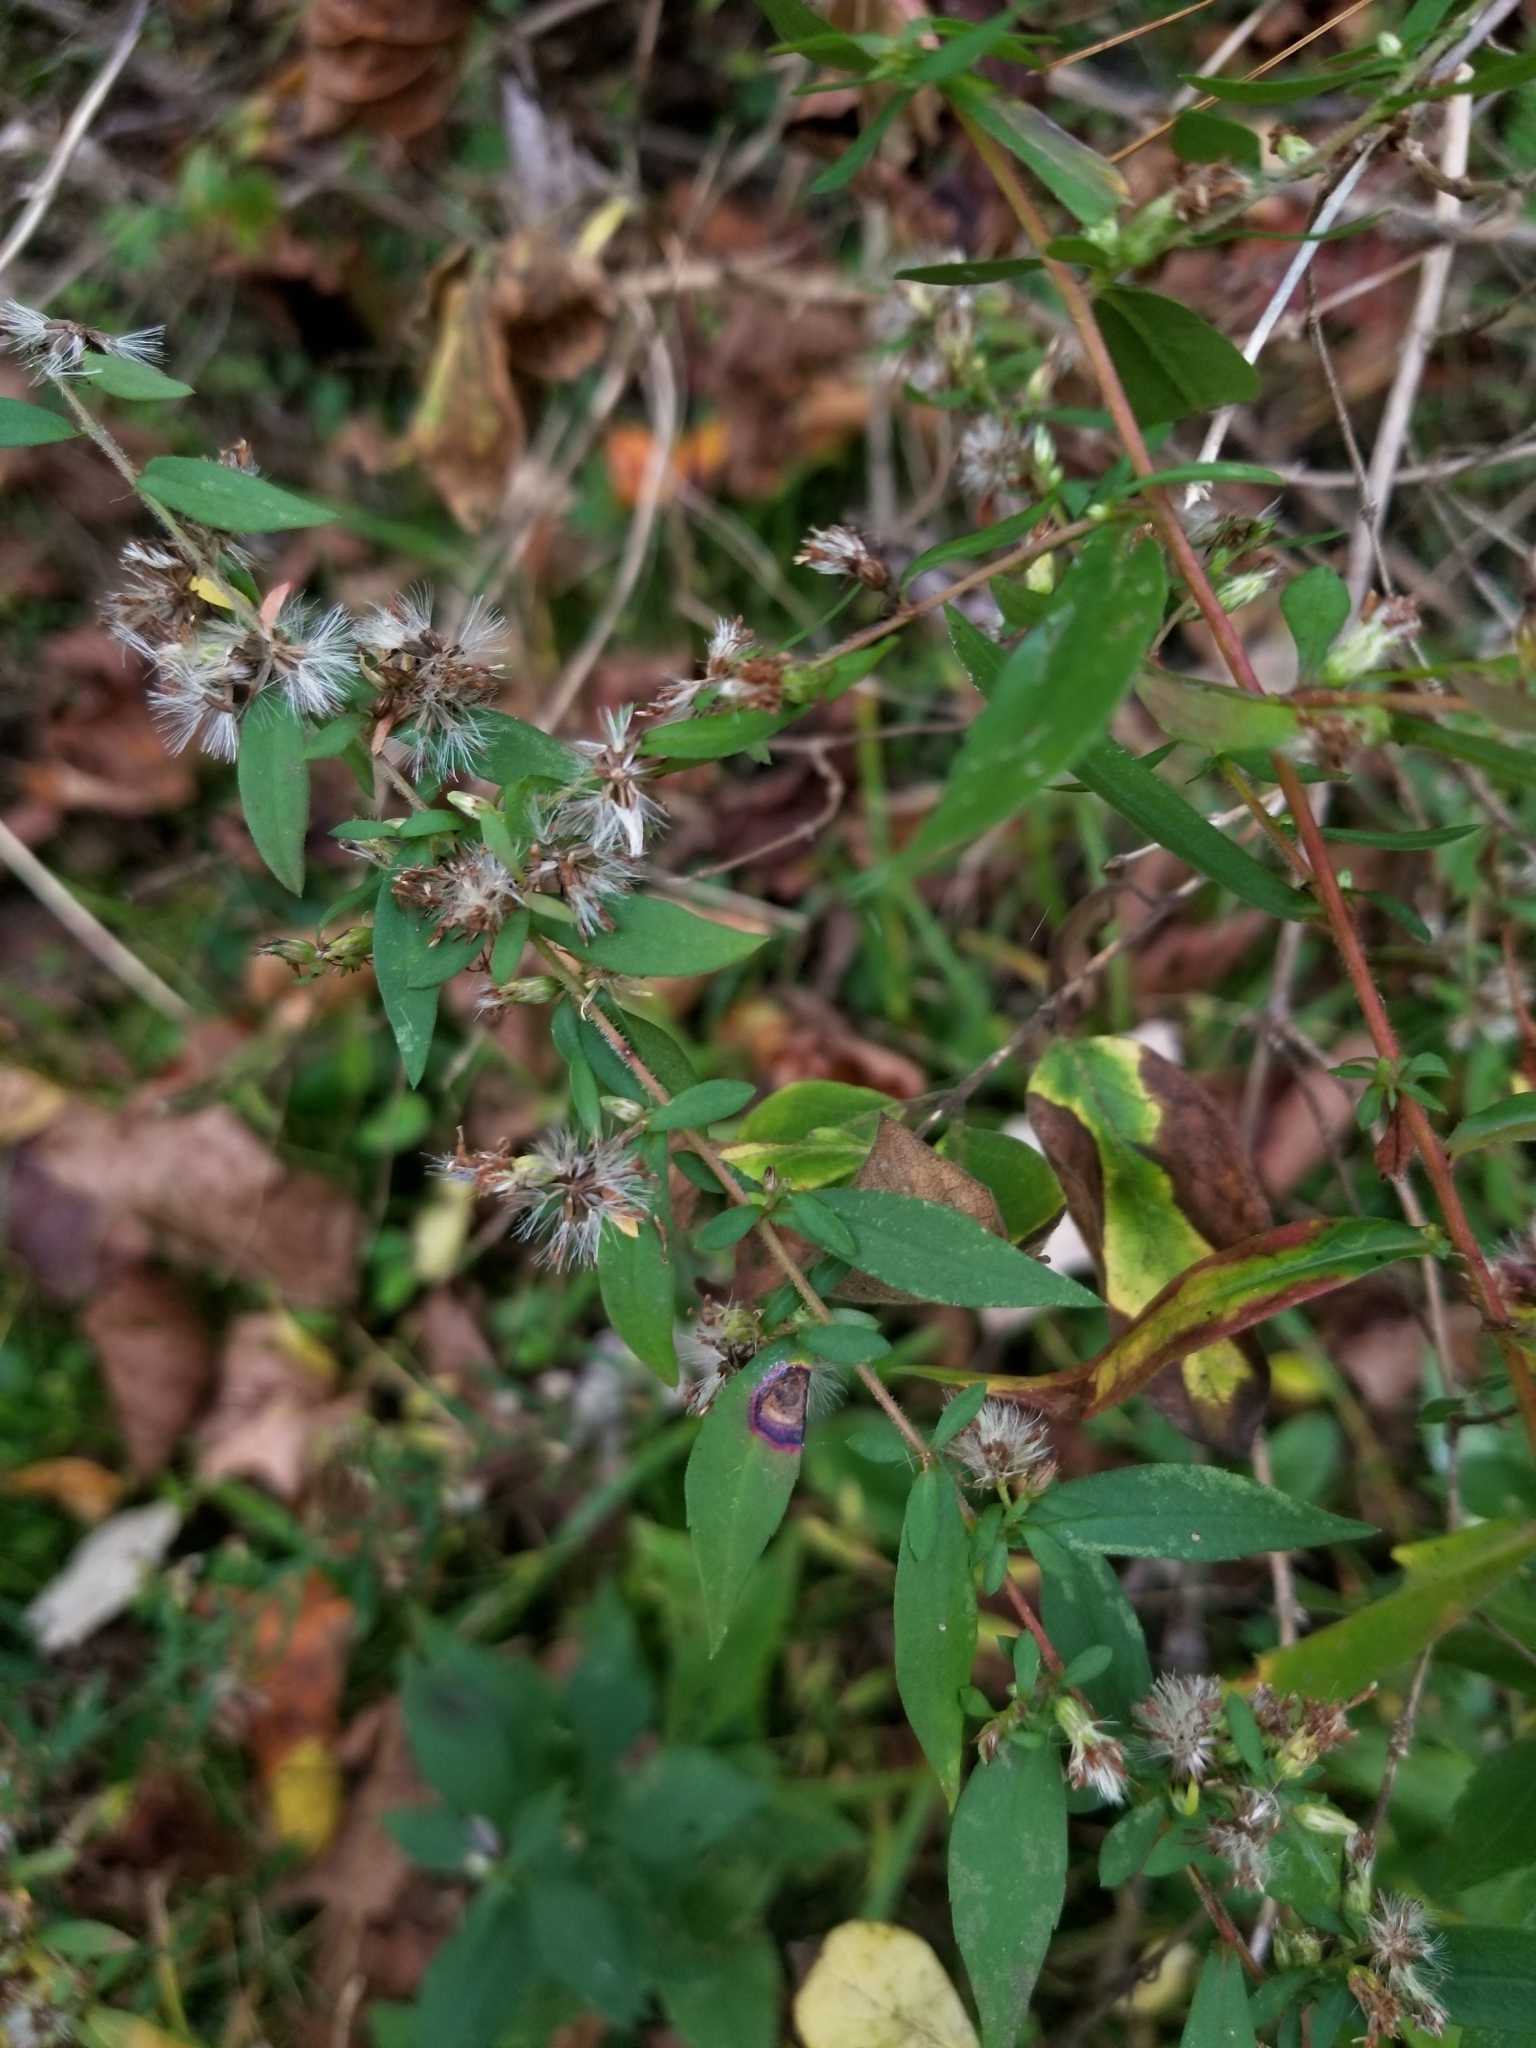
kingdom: Animalia
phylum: Arthropoda
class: Insecta
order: Diptera
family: Cecidomyiidae
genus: Asteromyia
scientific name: Asteromyia laeviana
